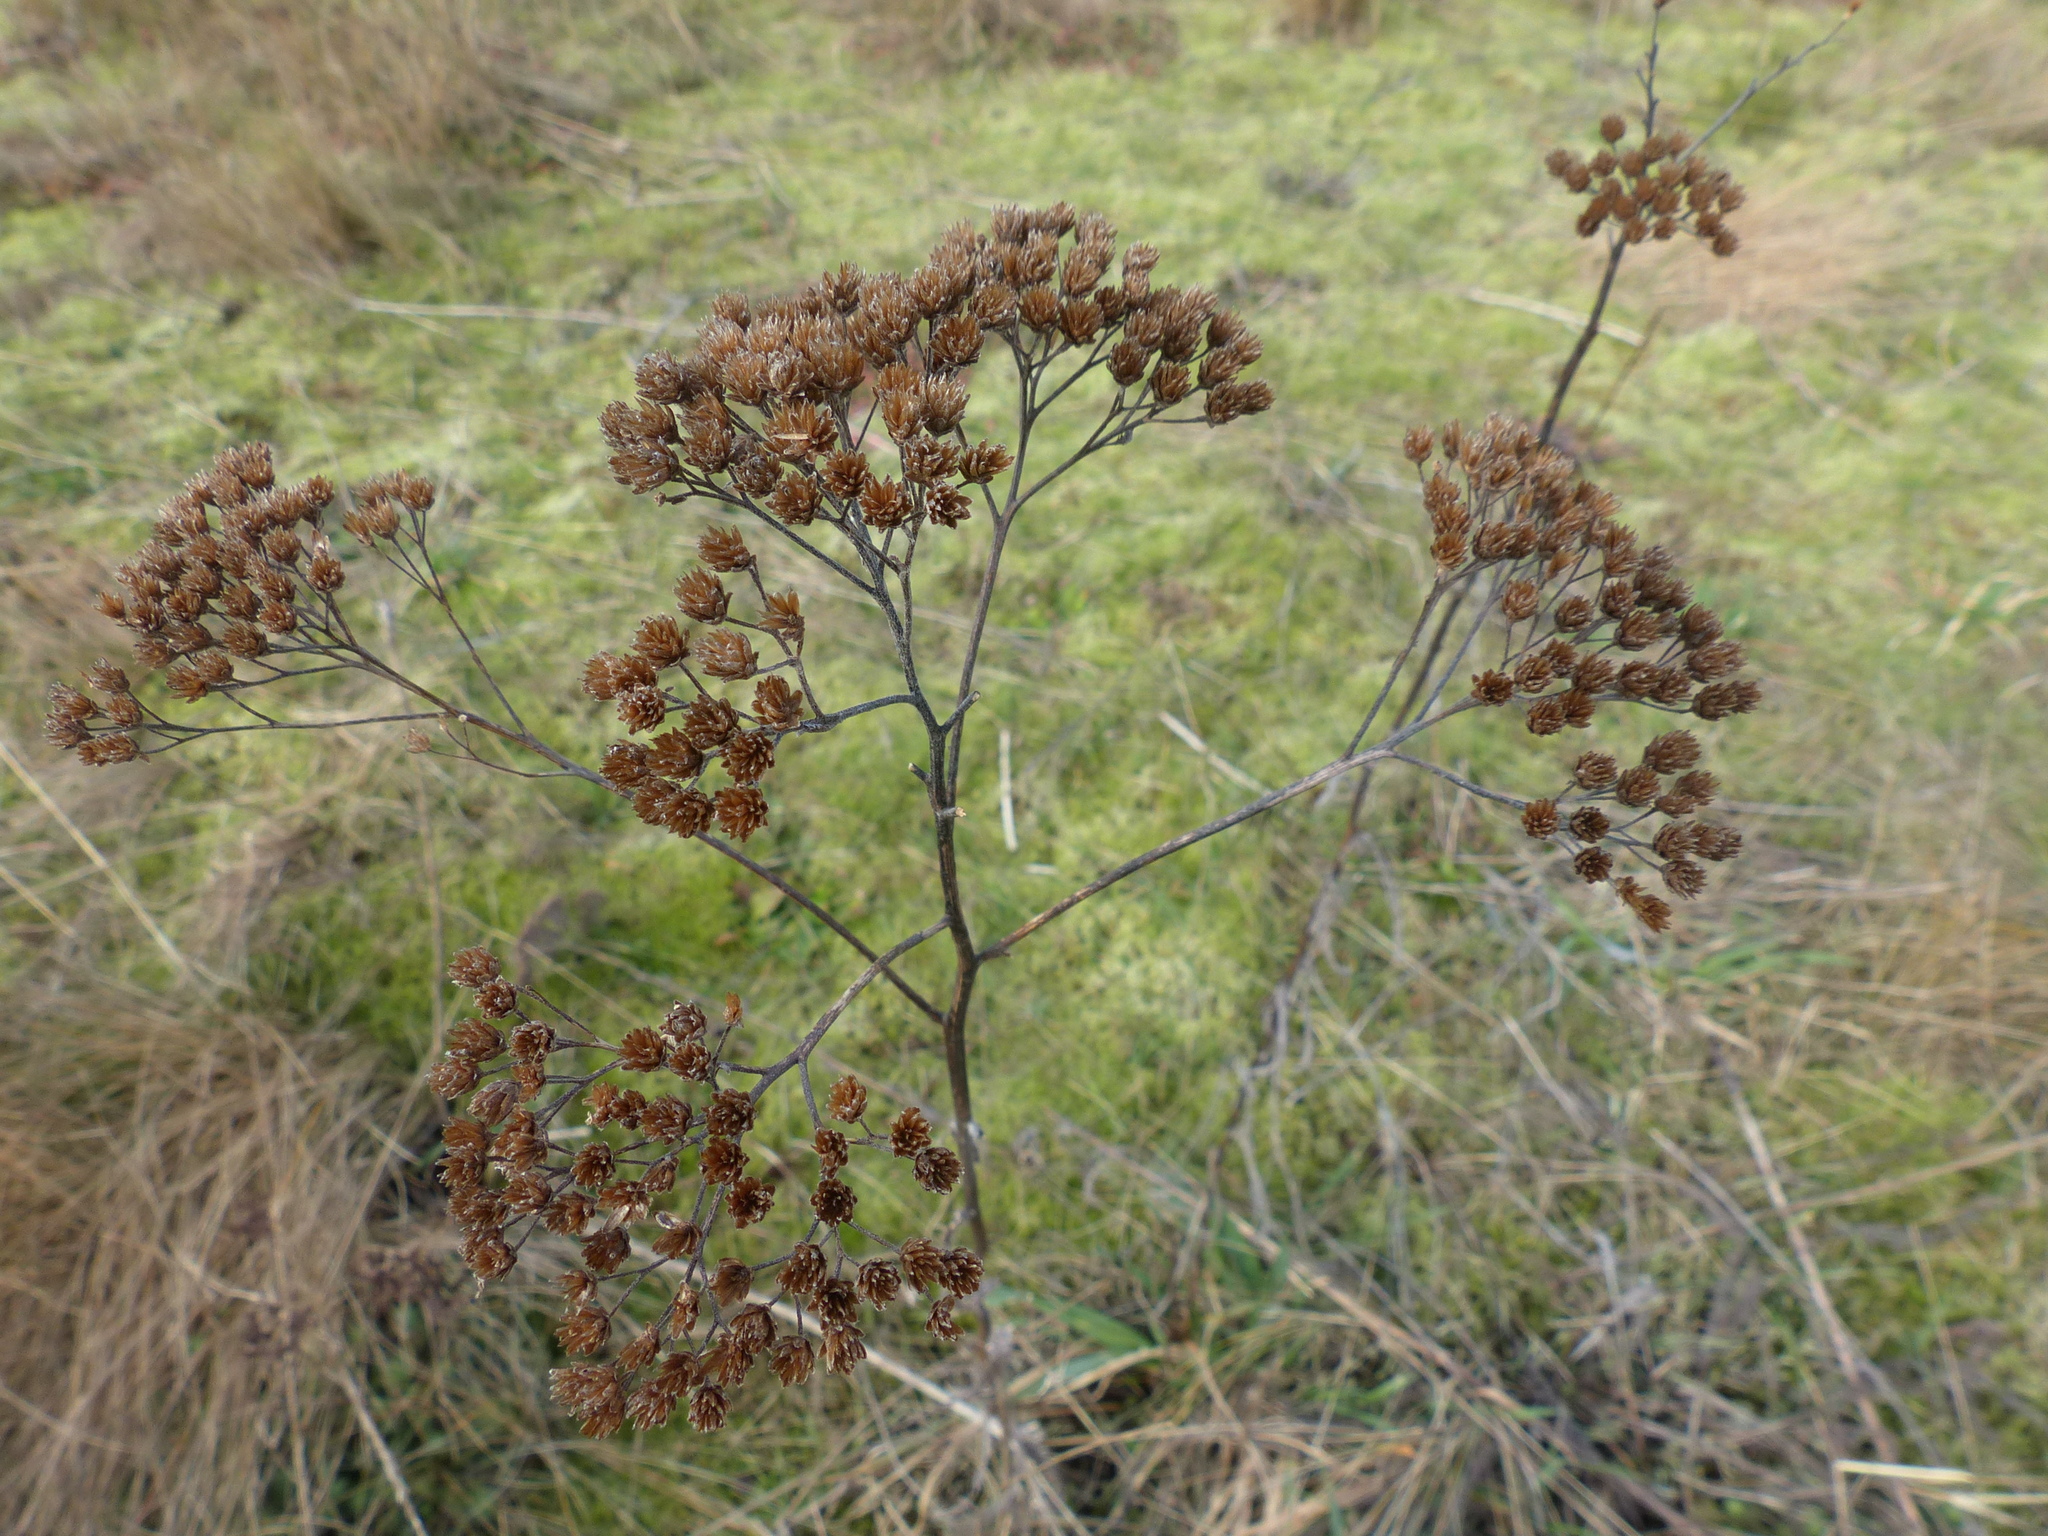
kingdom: Plantae
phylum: Tracheophyta
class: Magnoliopsida
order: Asterales
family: Asteraceae
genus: Achillea
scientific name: Achillea millefolium
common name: Yarrow
